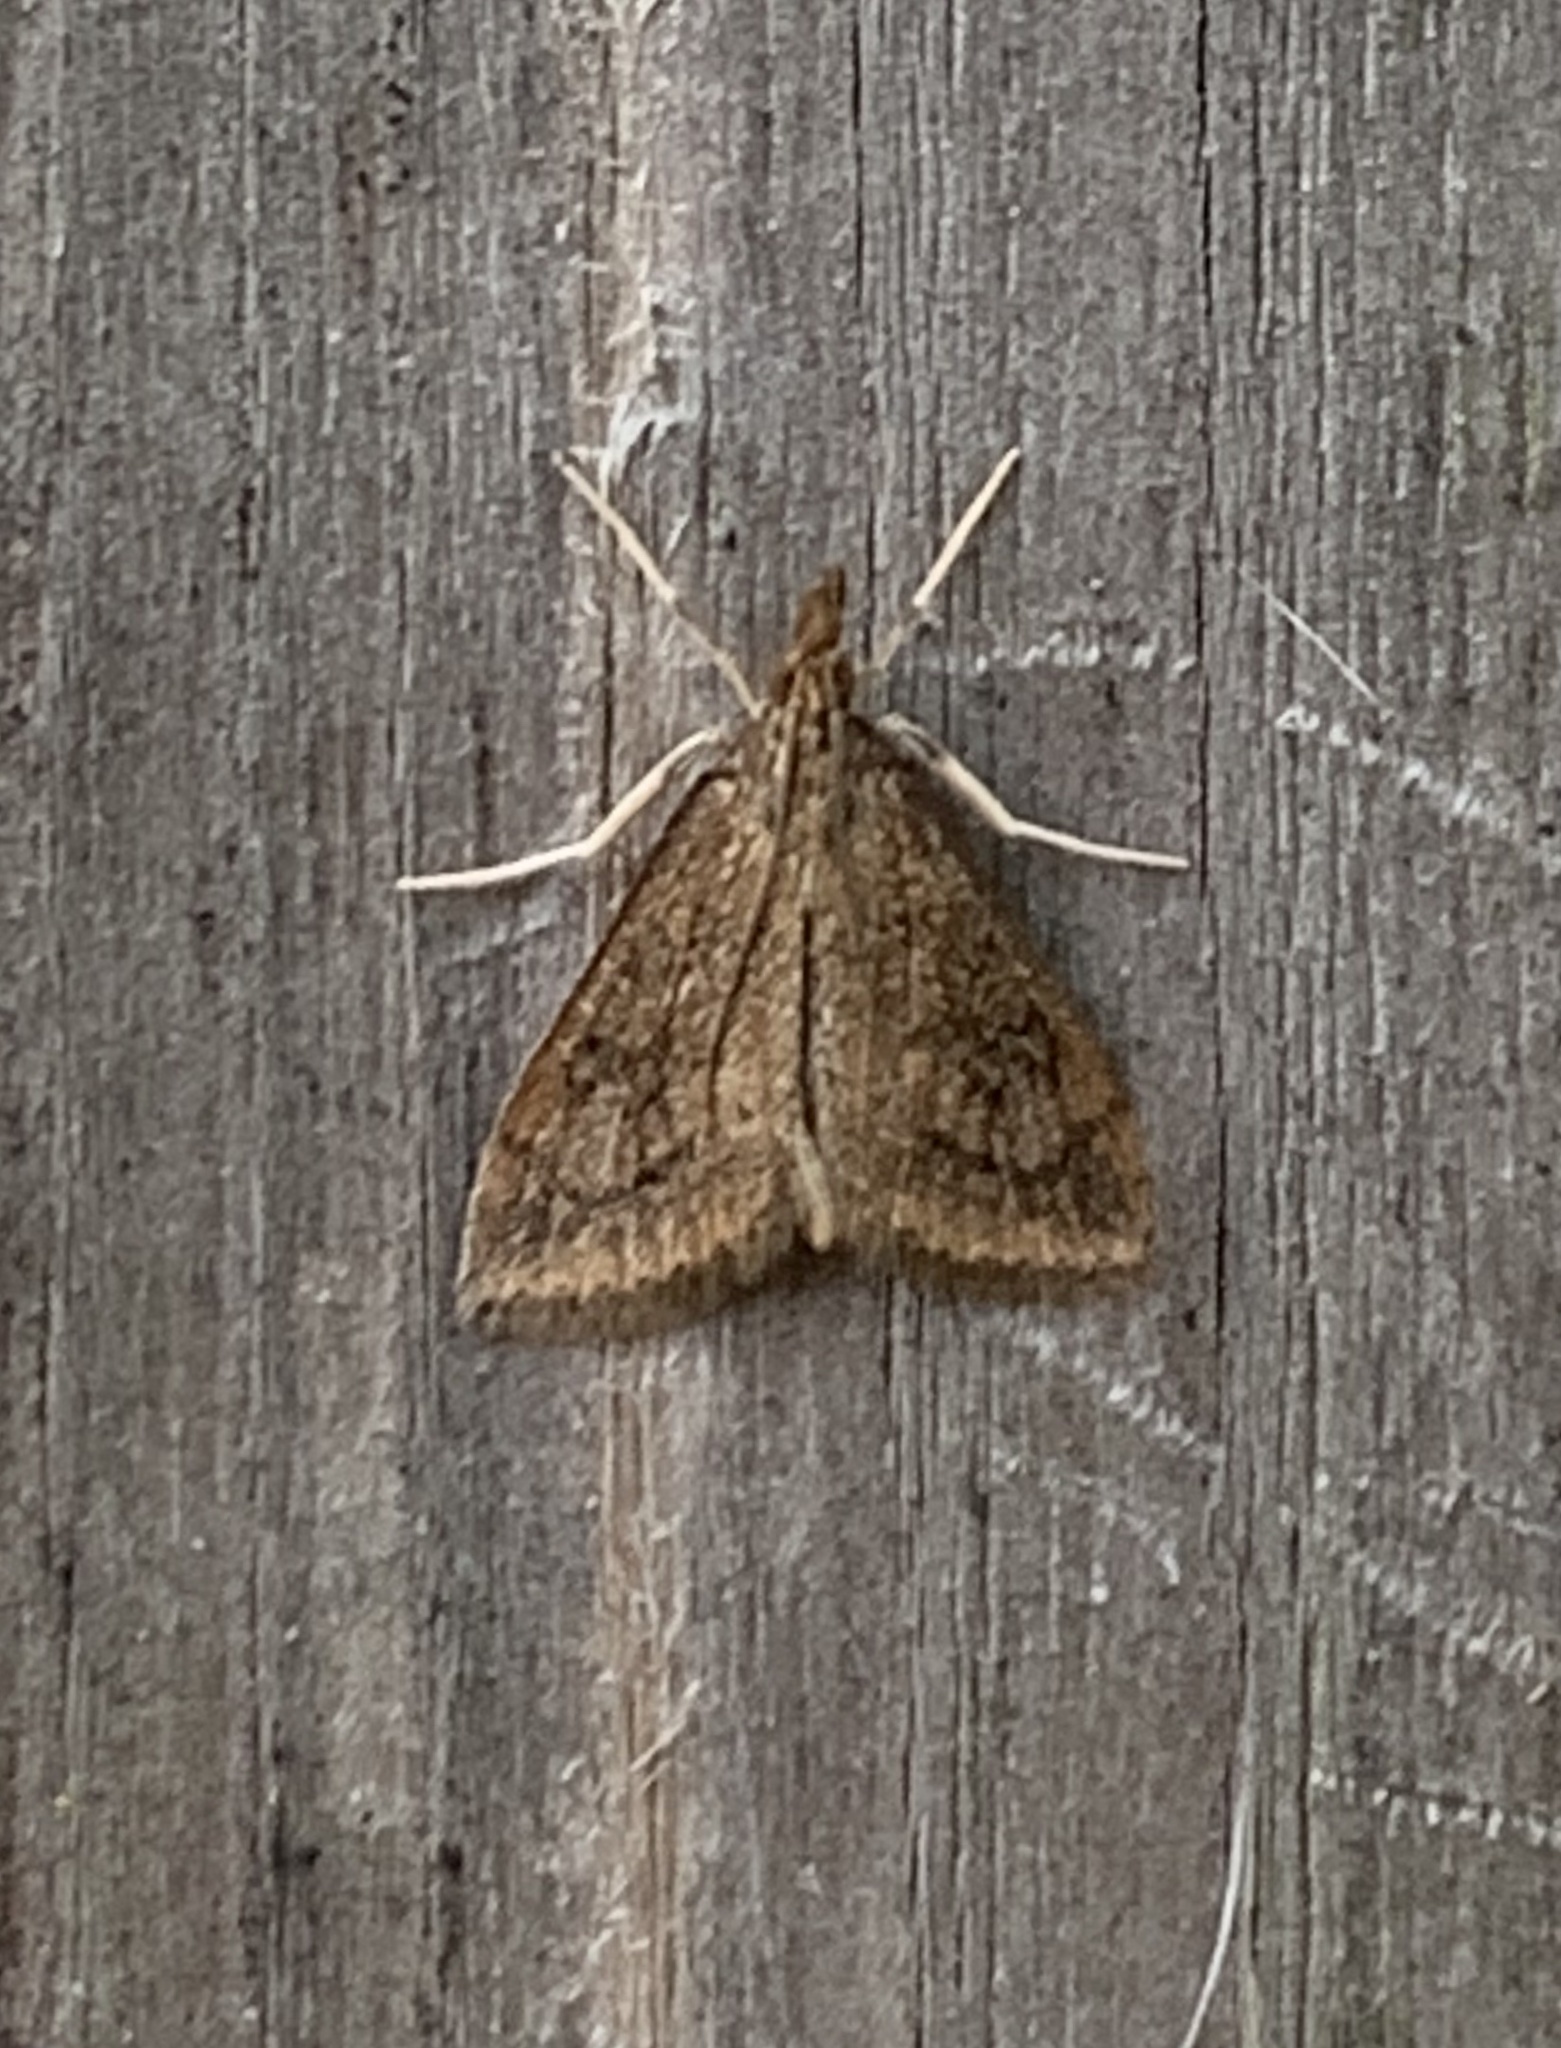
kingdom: Animalia
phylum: Arthropoda
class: Insecta
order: Lepidoptera
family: Crambidae
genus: Udea
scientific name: Udea rubigalis
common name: Celery leaftier moth
